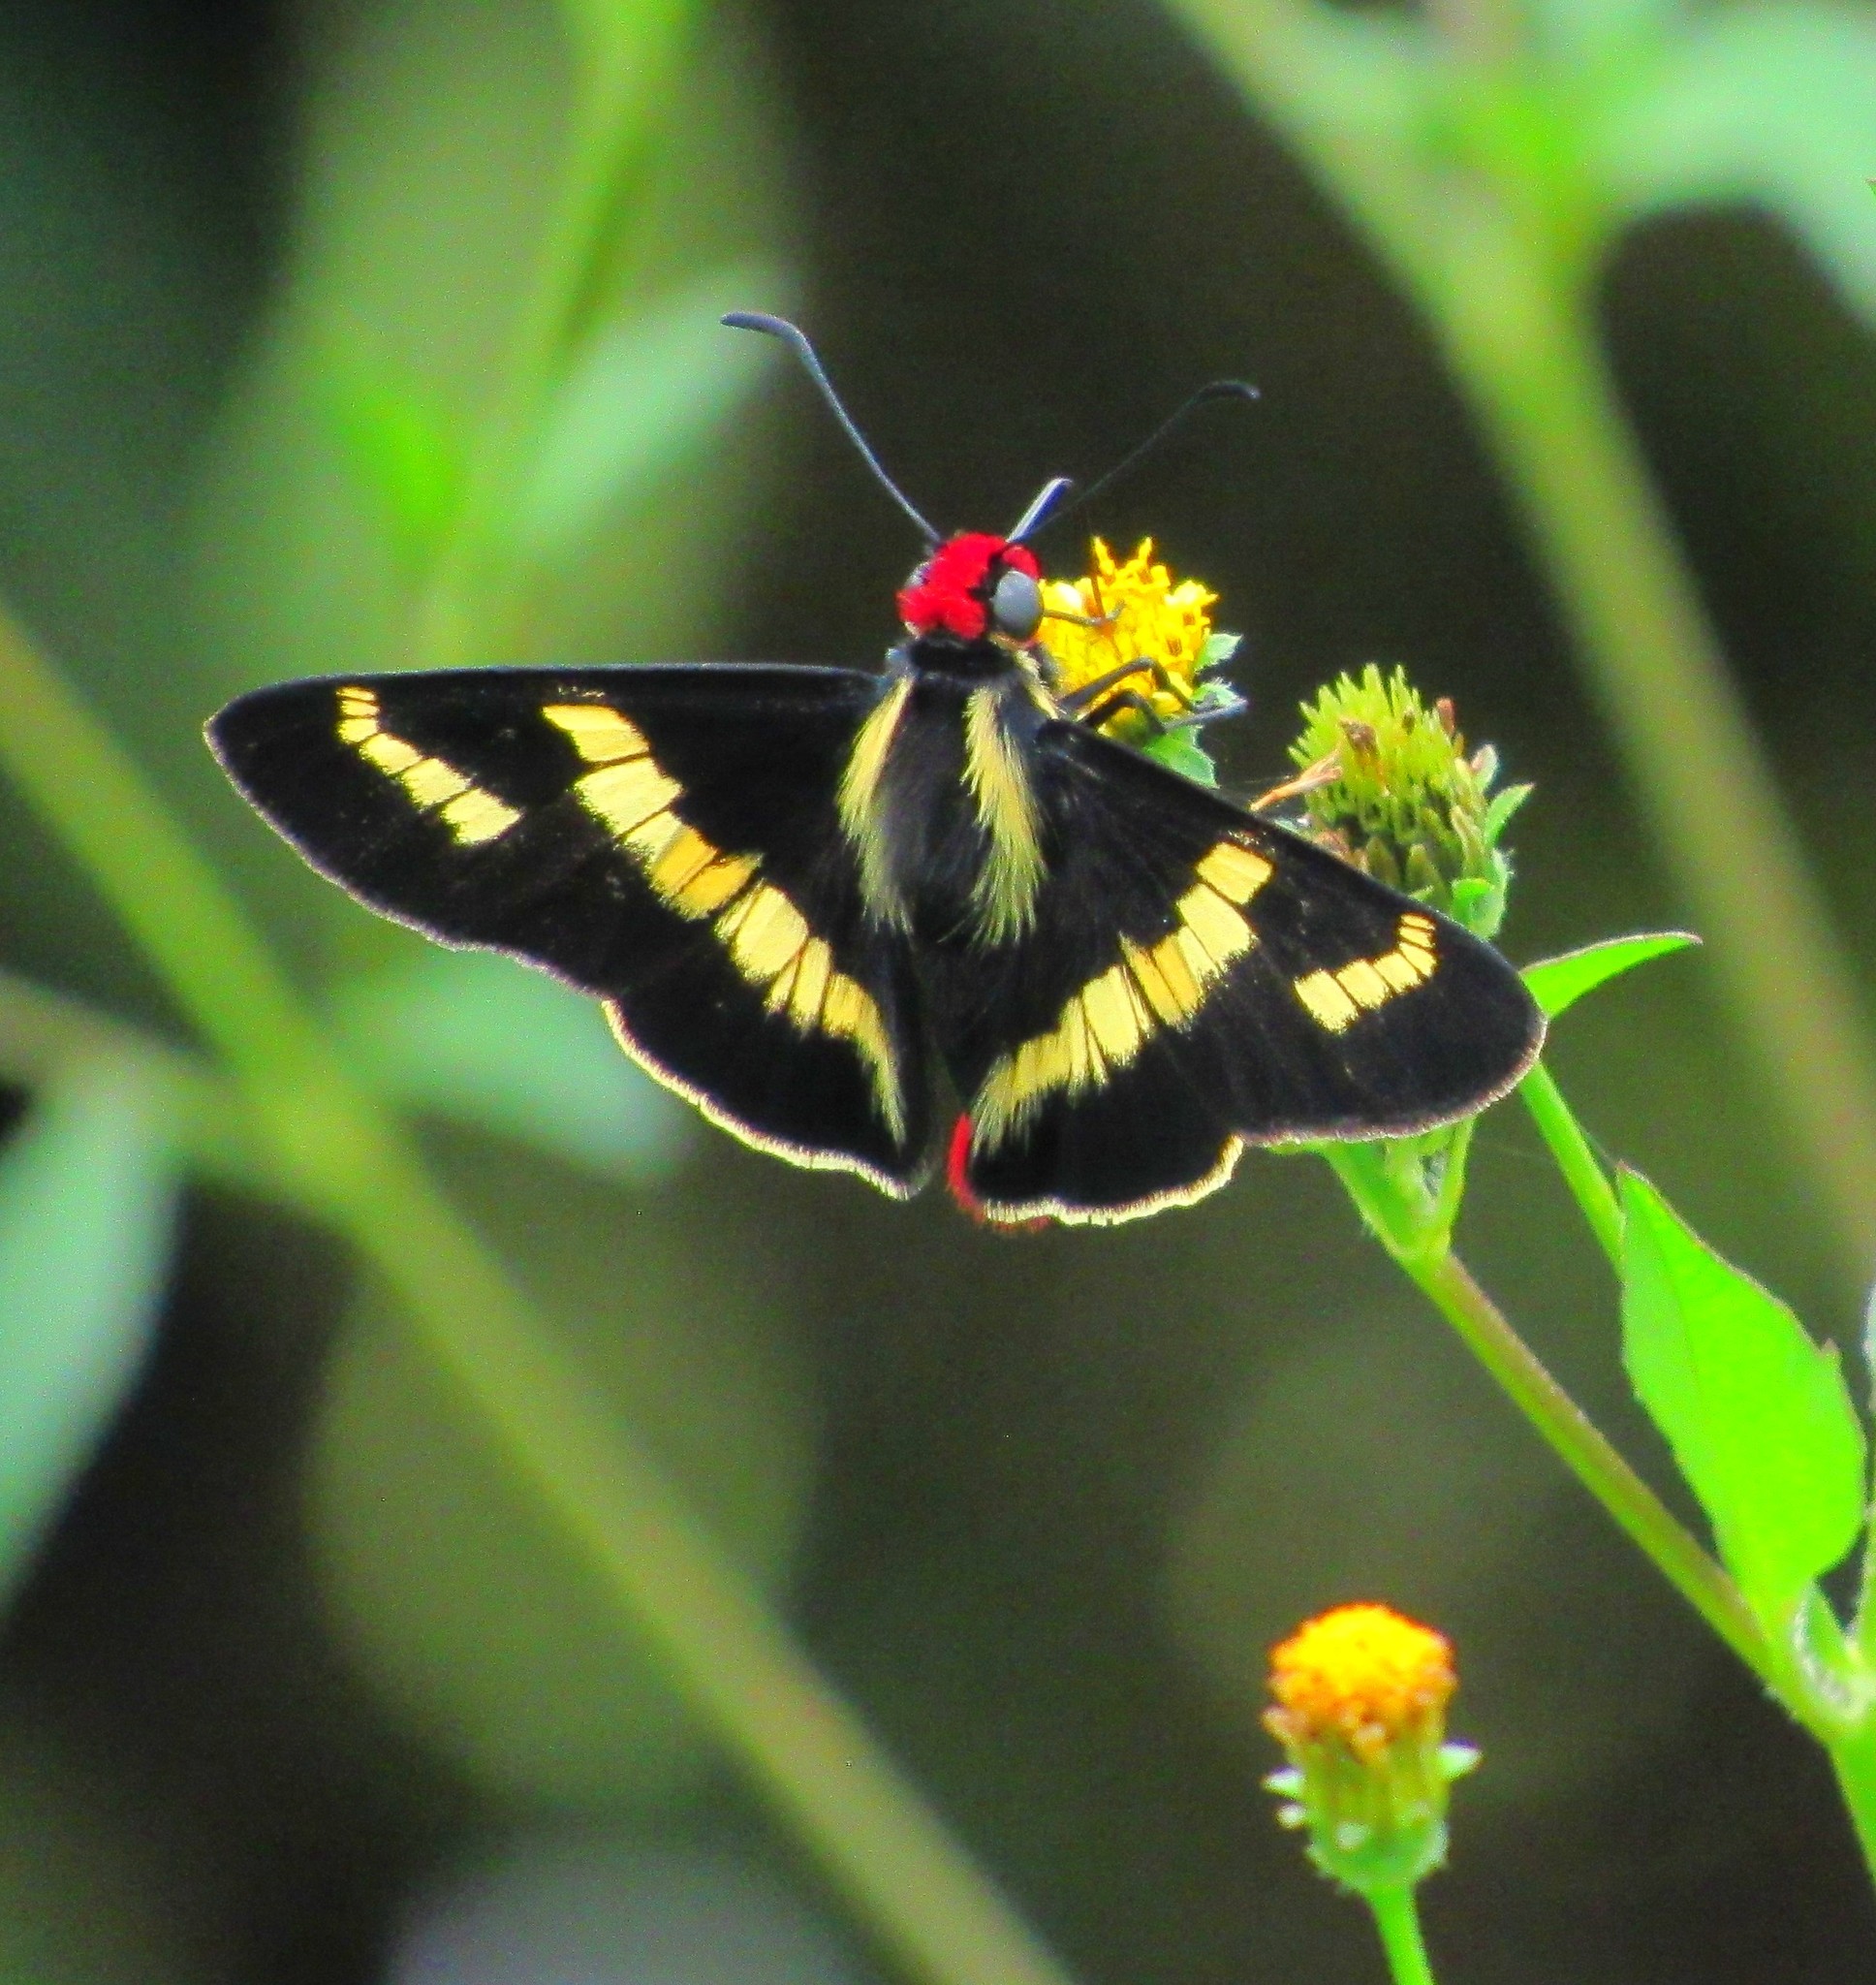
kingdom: Animalia
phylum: Arthropoda
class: Insecta
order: Lepidoptera
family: Hesperiidae
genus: Sarbia
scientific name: Sarbia damippe
